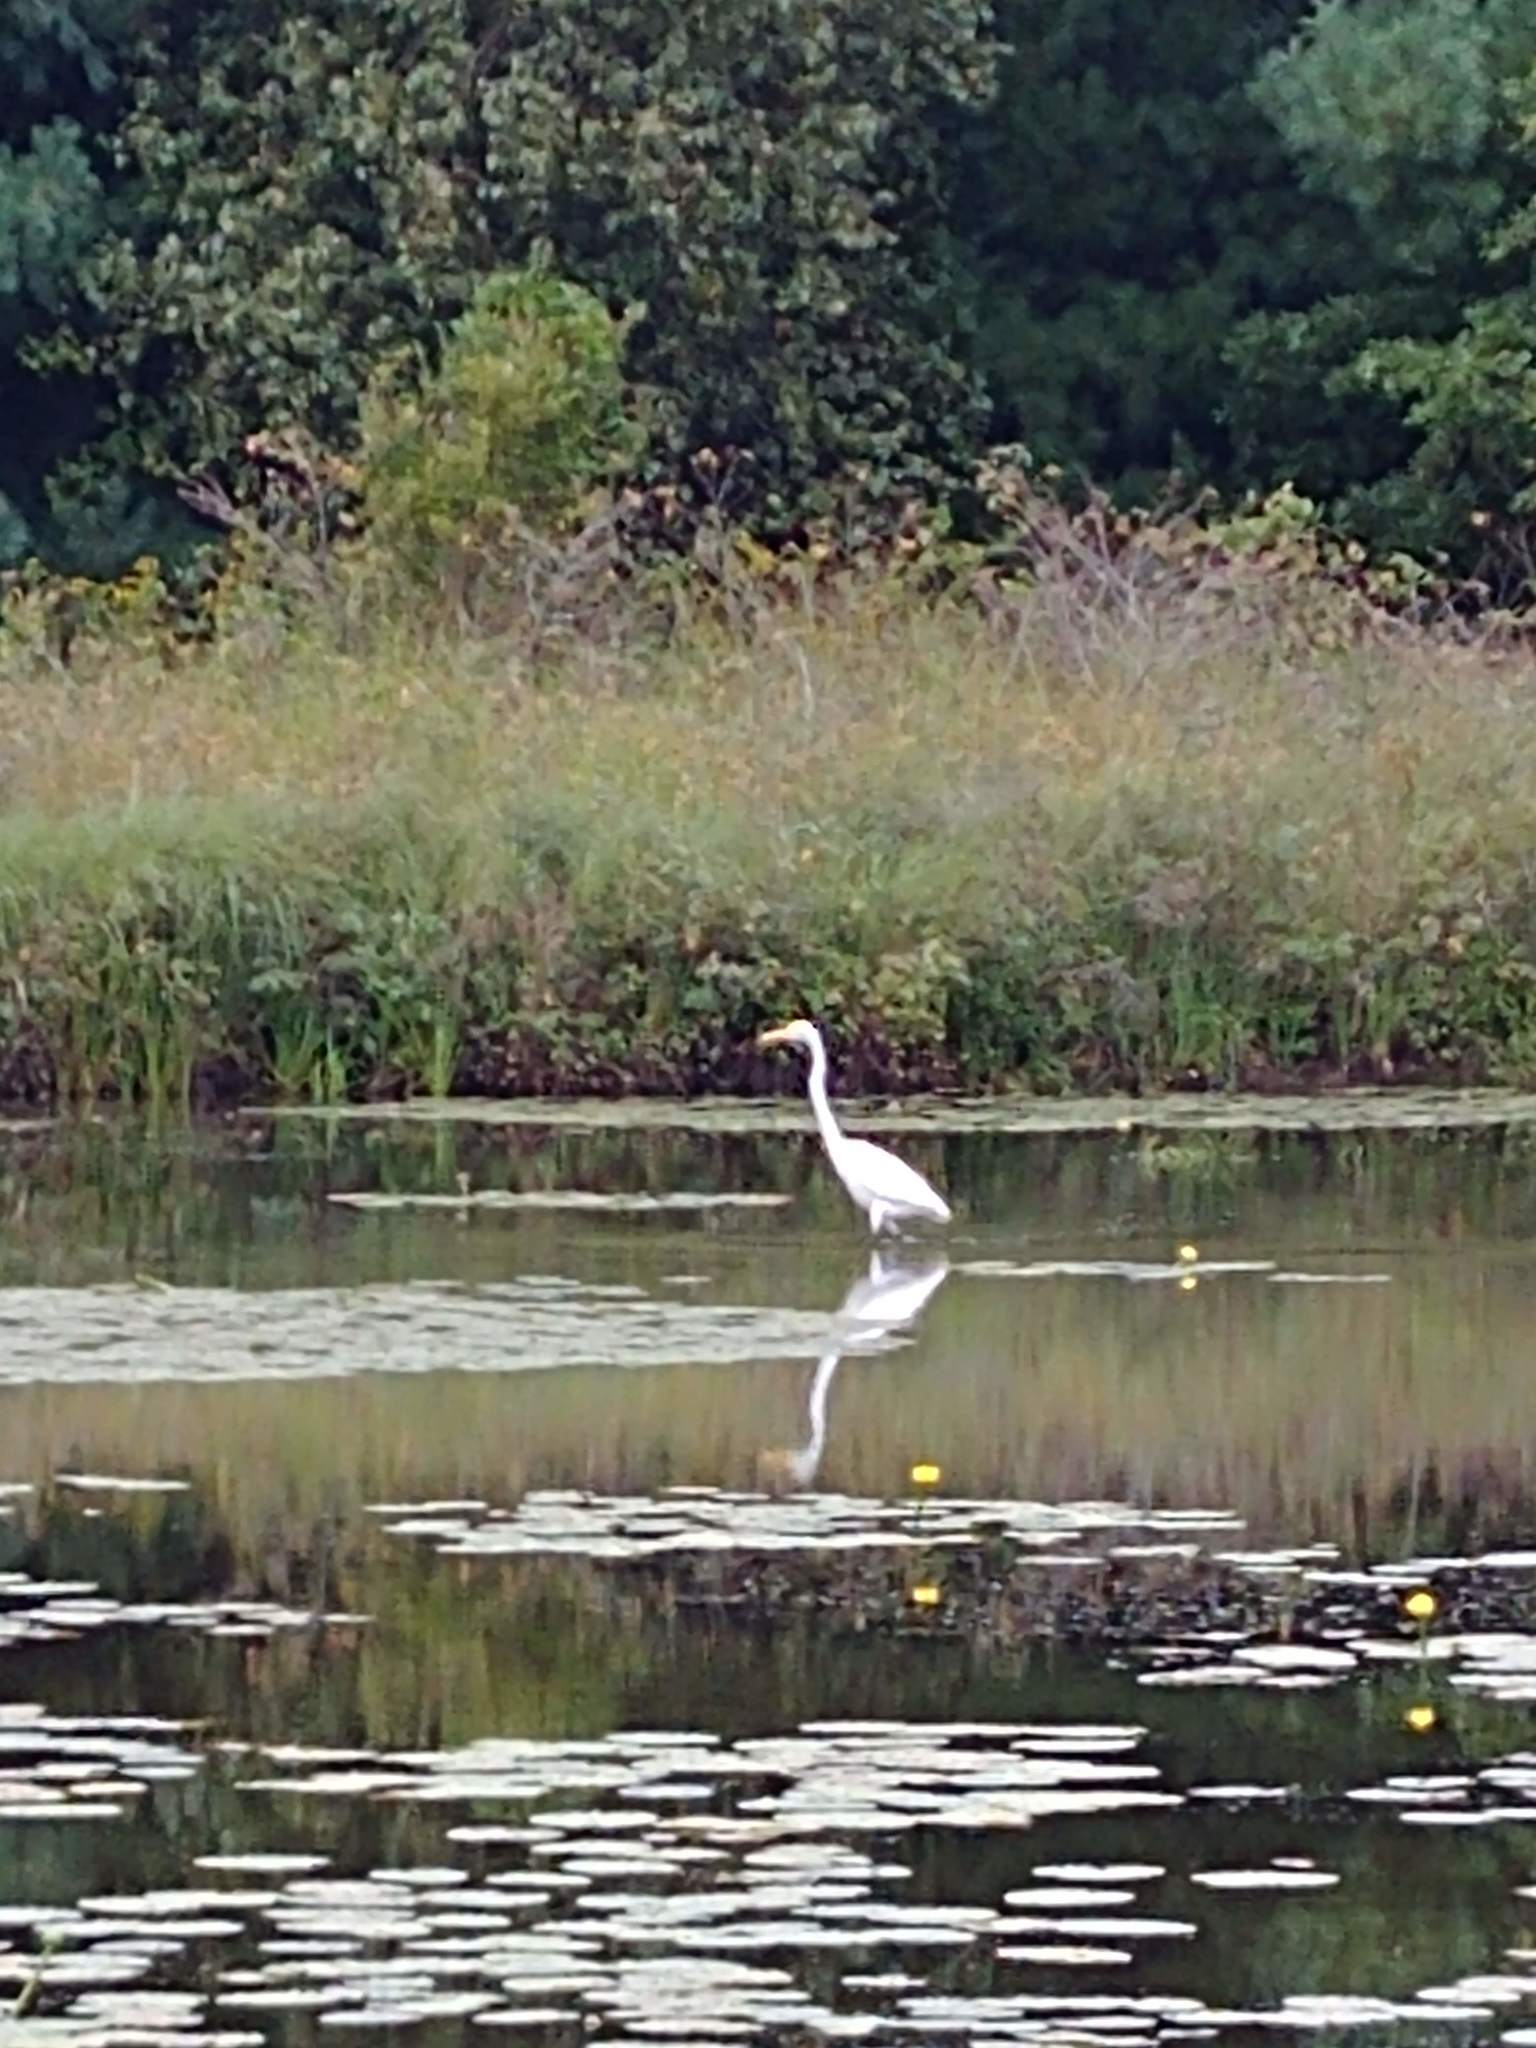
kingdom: Animalia
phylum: Chordata
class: Aves
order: Pelecaniformes
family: Ardeidae
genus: Ardea
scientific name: Ardea alba
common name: Great egret
